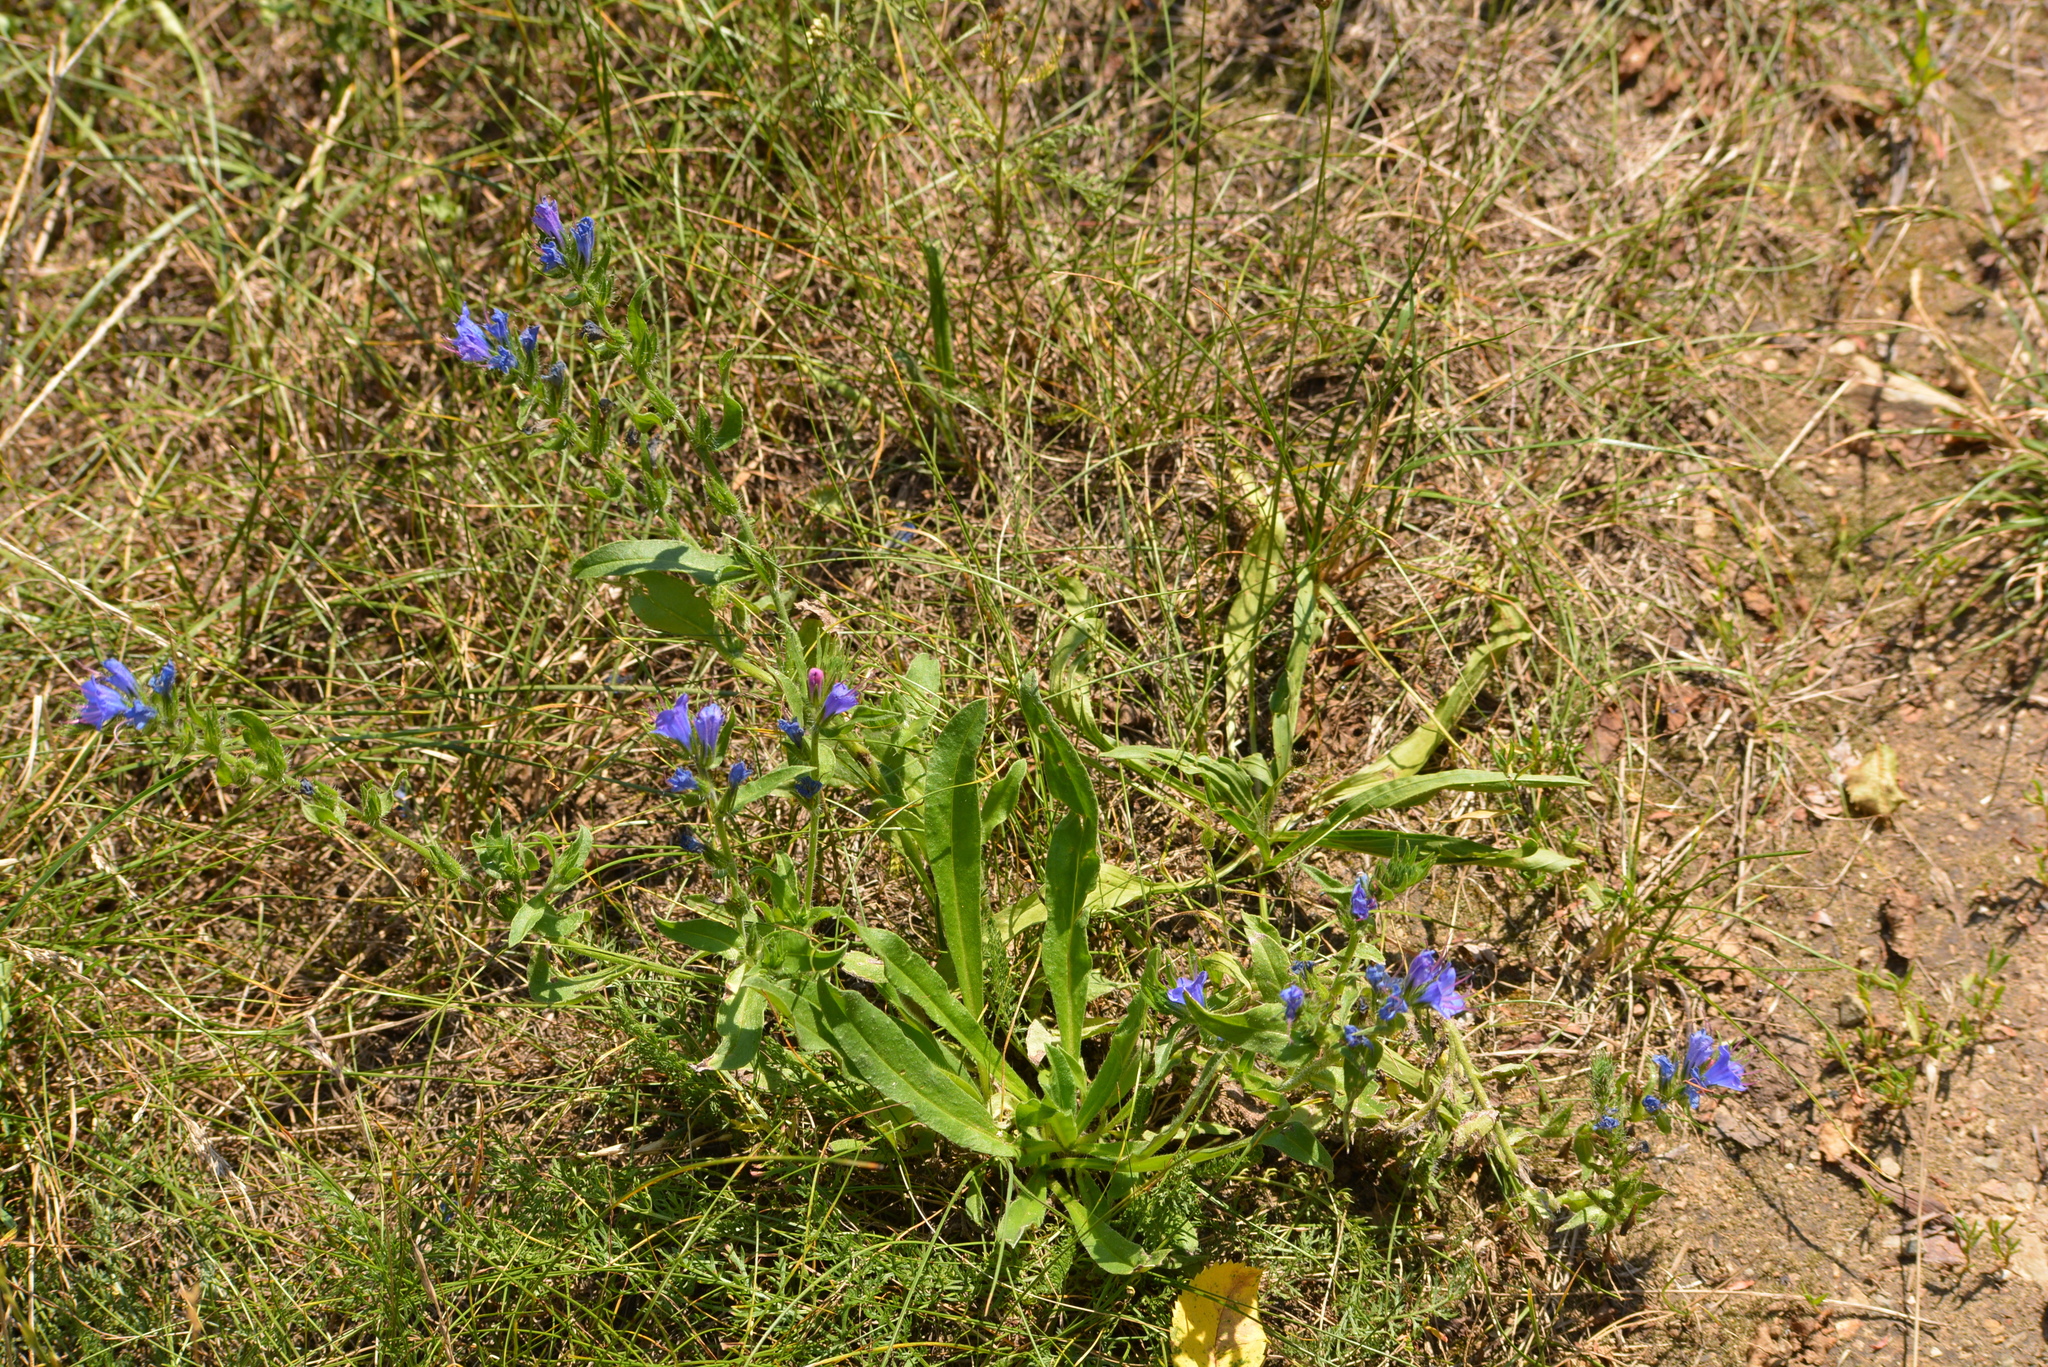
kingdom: Plantae
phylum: Tracheophyta
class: Magnoliopsida
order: Boraginales
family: Boraginaceae
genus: Echium
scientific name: Echium vulgare
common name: Common viper's bugloss
